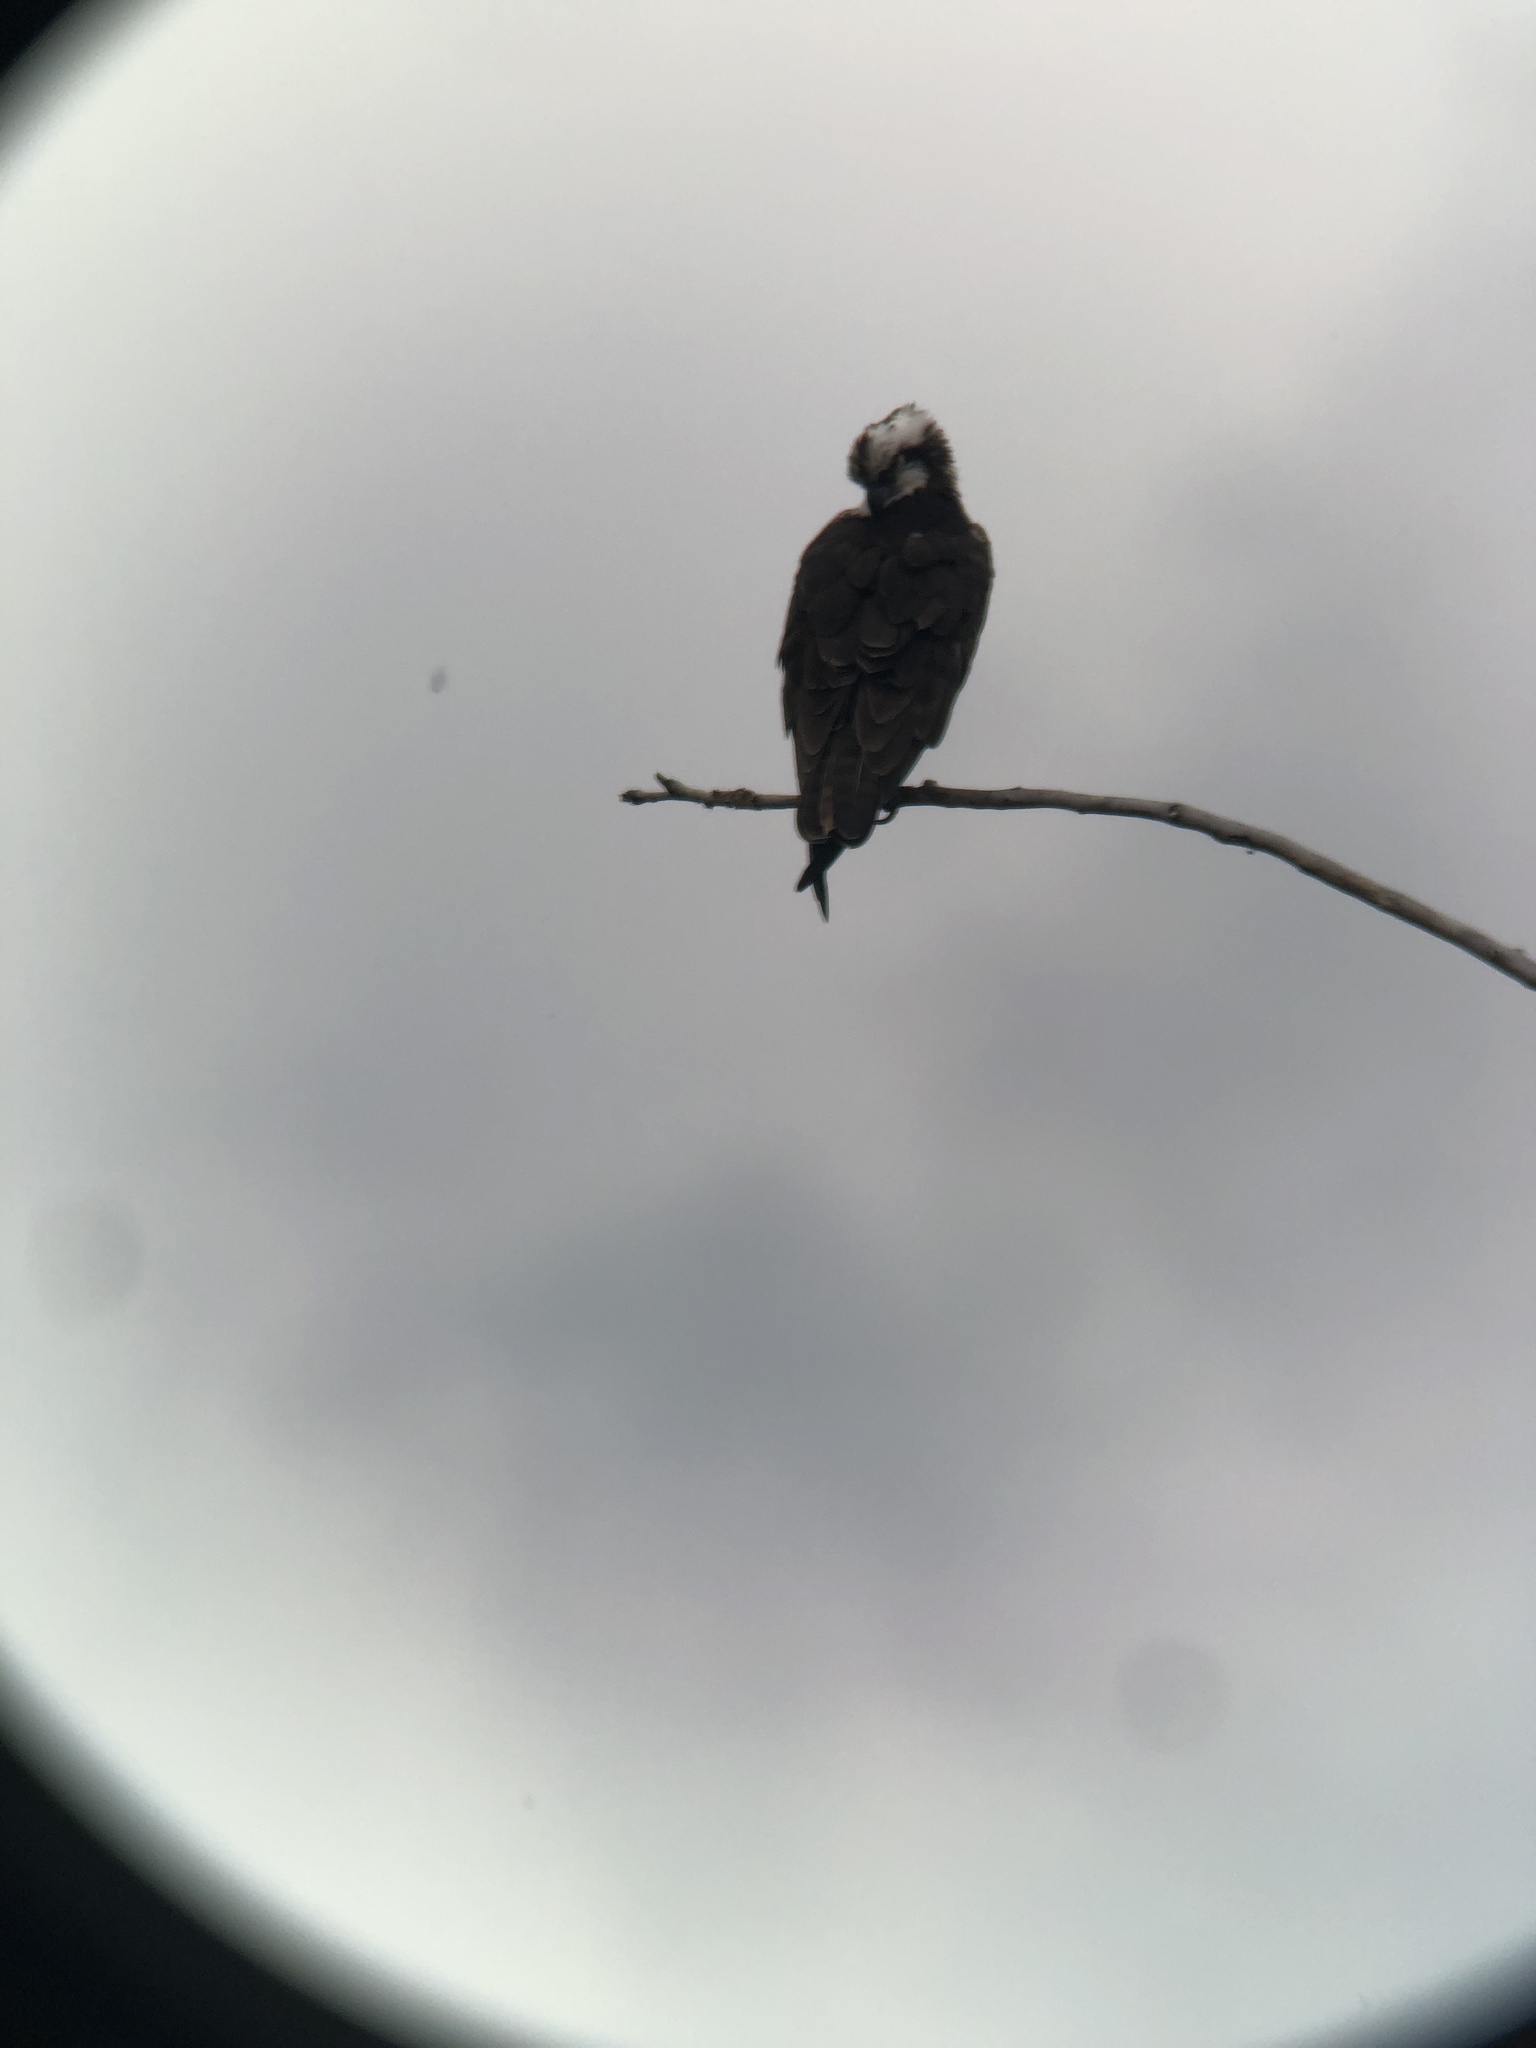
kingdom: Animalia
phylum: Chordata
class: Aves
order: Accipitriformes
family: Pandionidae
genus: Pandion
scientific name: Pandion haliaetus
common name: Osprey
